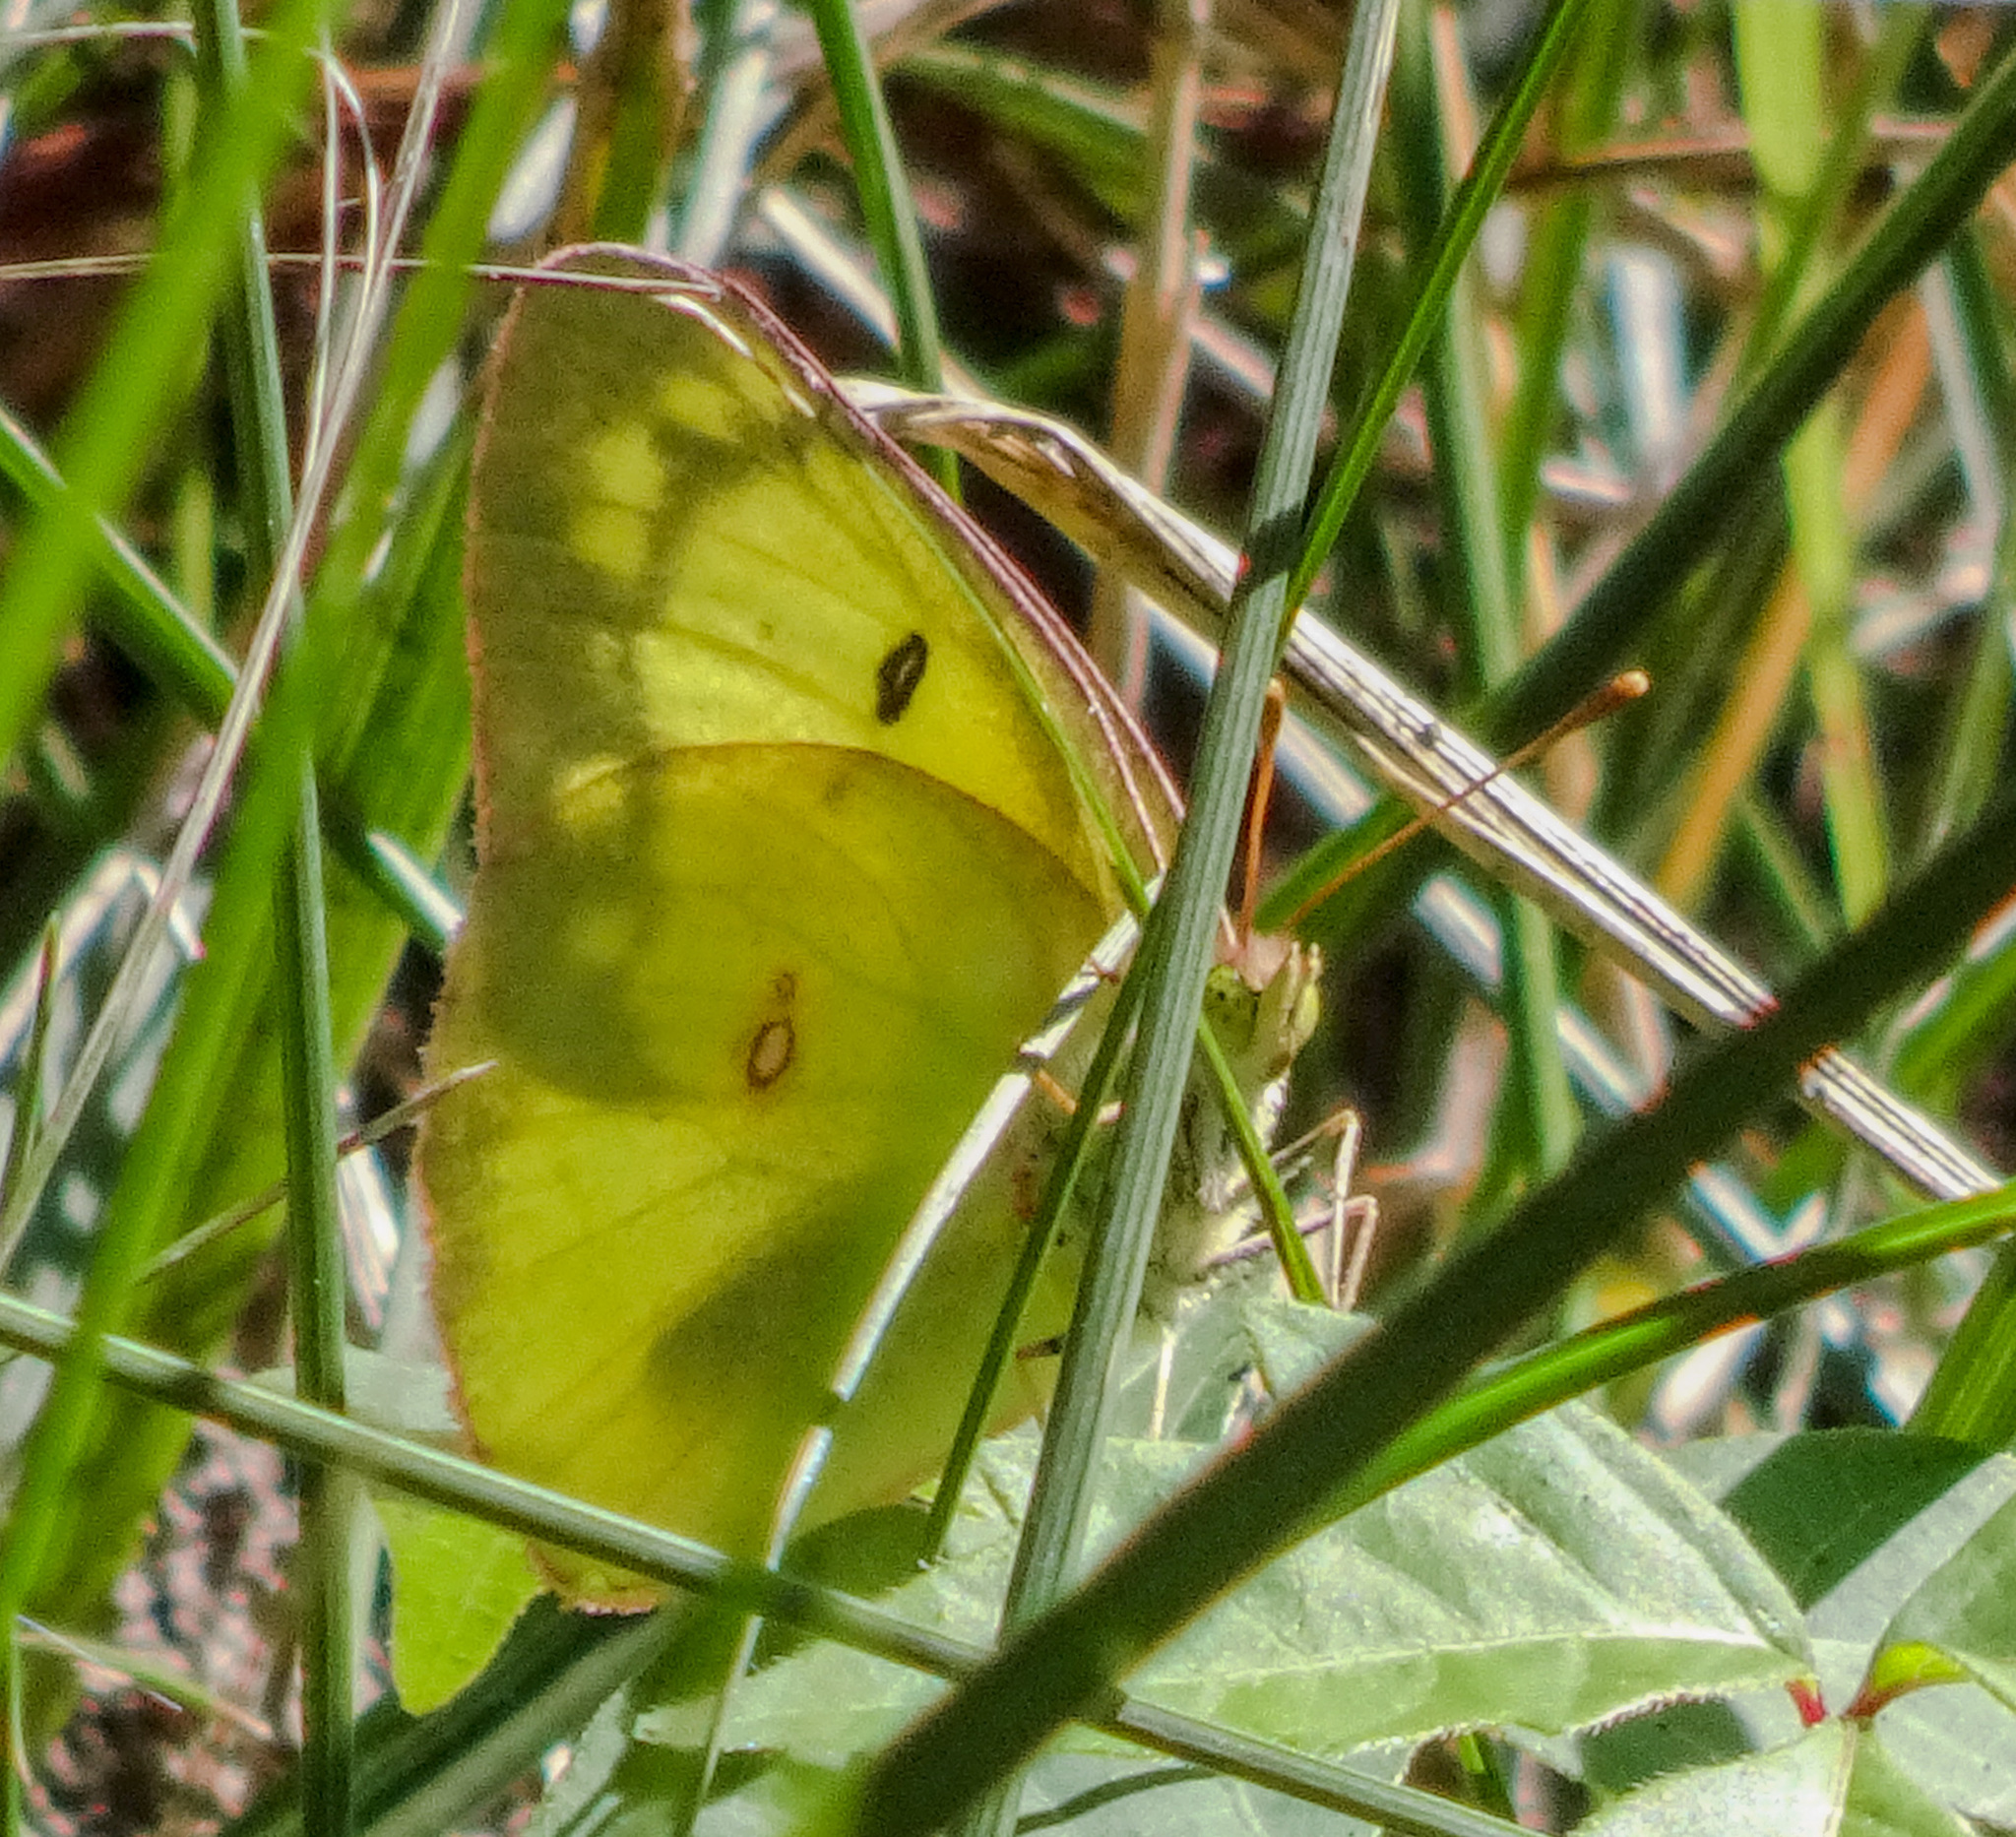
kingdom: Animalia
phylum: Arthropoda
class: Insecta
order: Lepidoptera
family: Pieridae
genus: Colias
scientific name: Colias philodice
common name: Clouded sulphur
